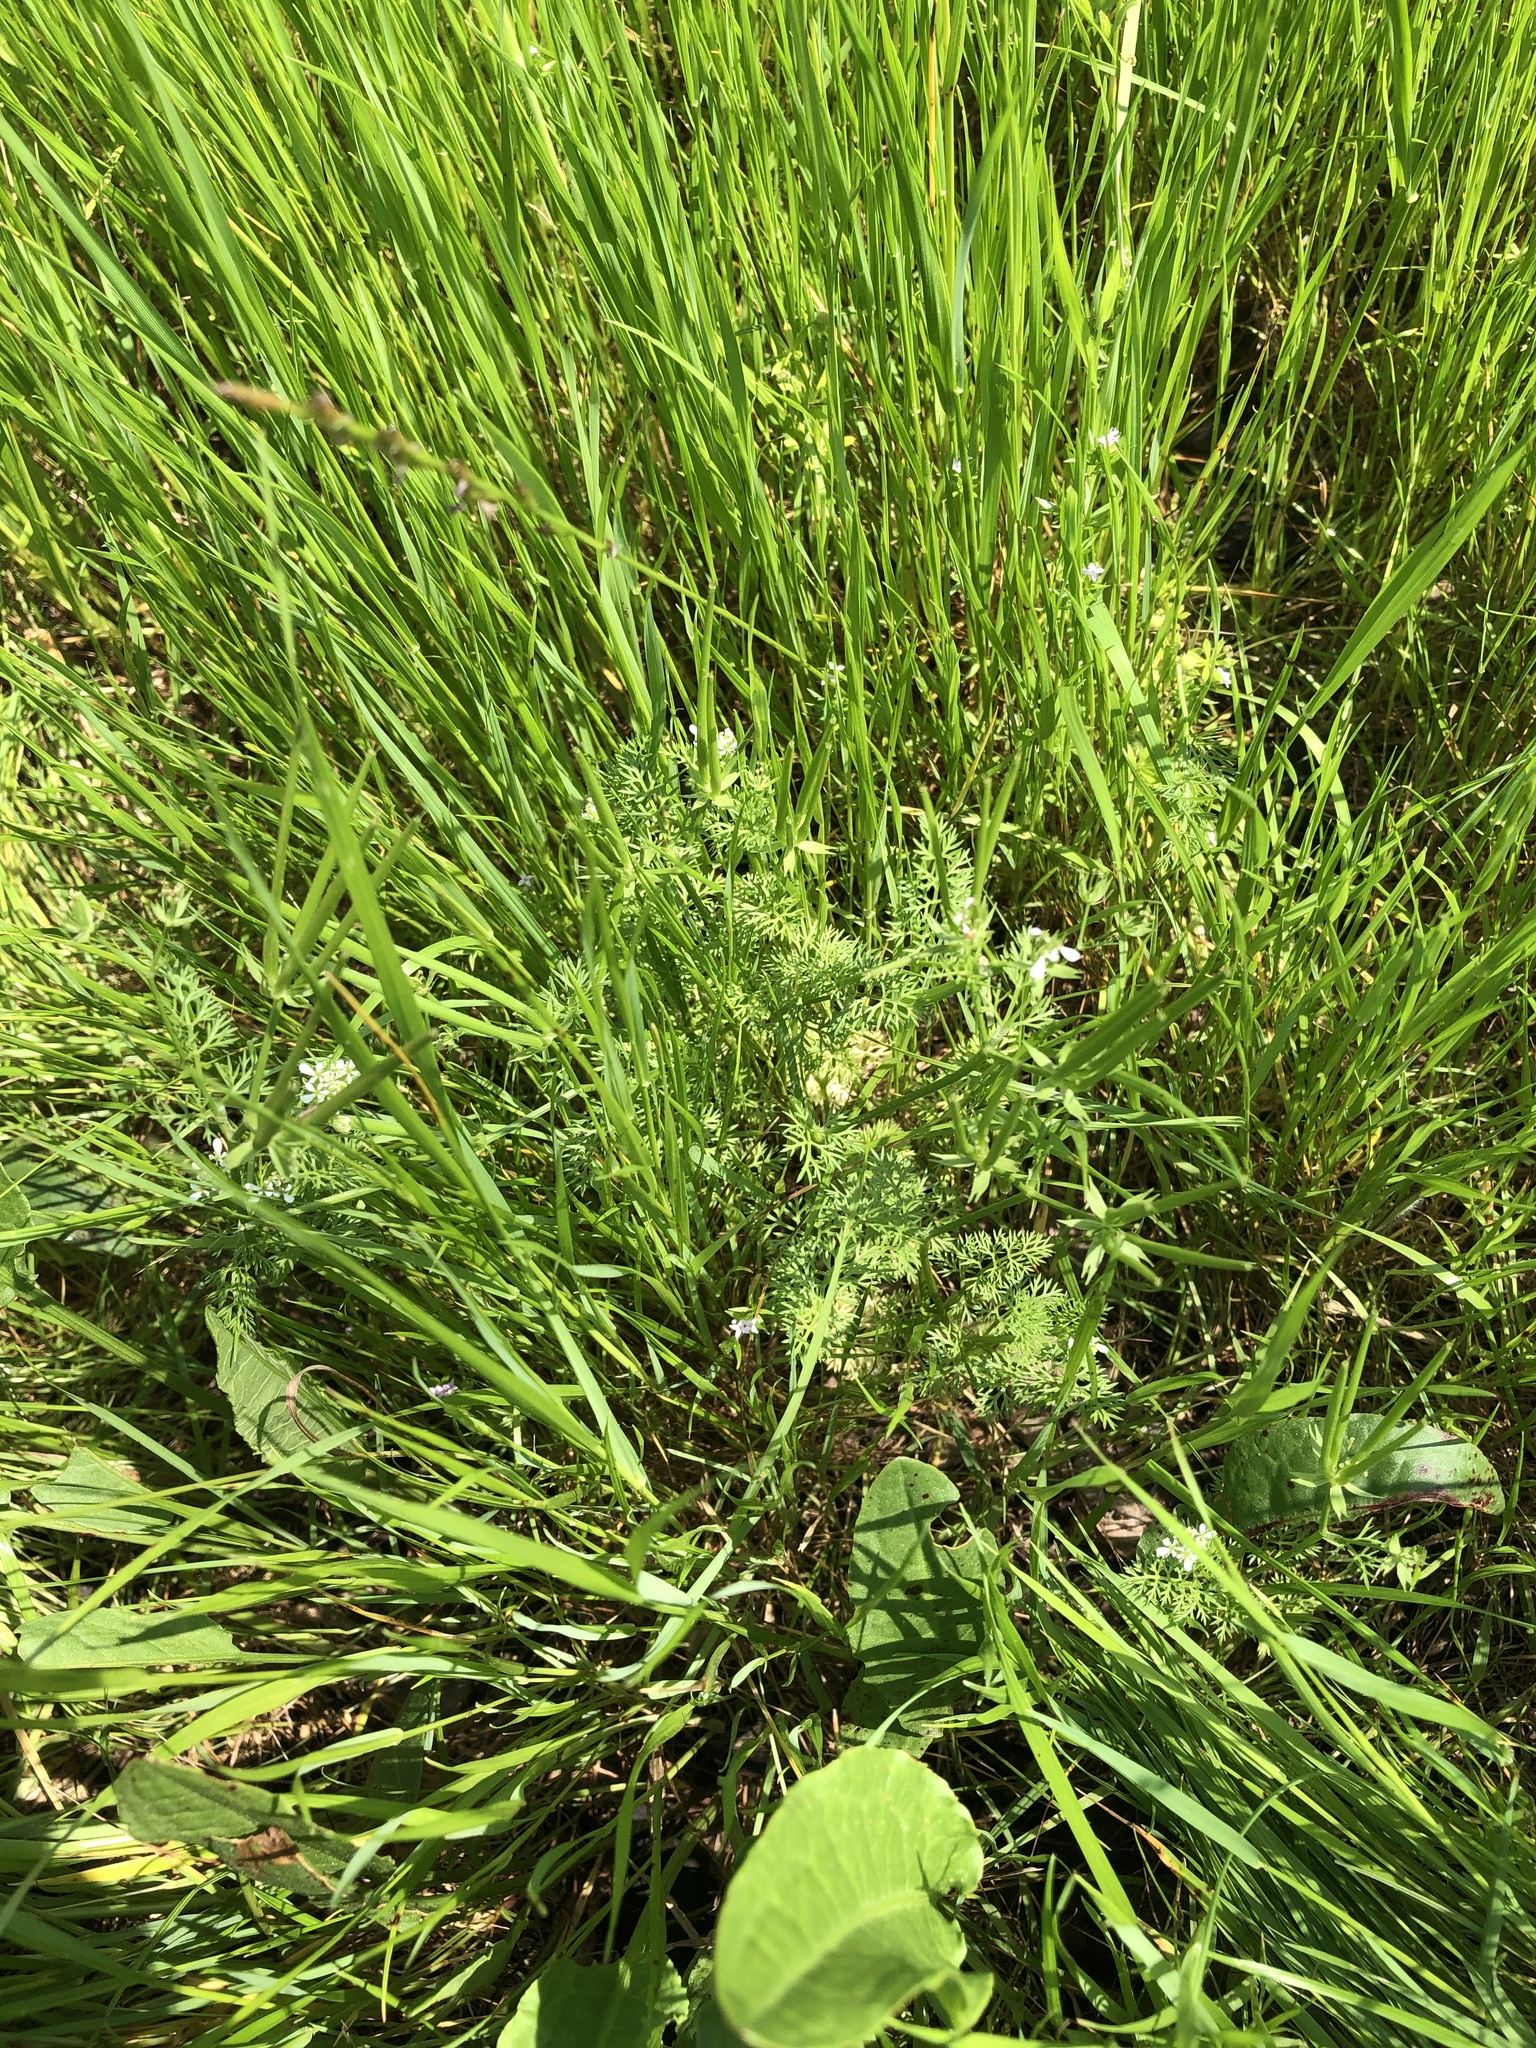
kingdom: Plantae
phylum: Tracheophyta
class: Magnoliopsida
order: Apiales
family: Apiaceae
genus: Scandix
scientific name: Scandix pecten-veneris
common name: Shepherd's-needle
